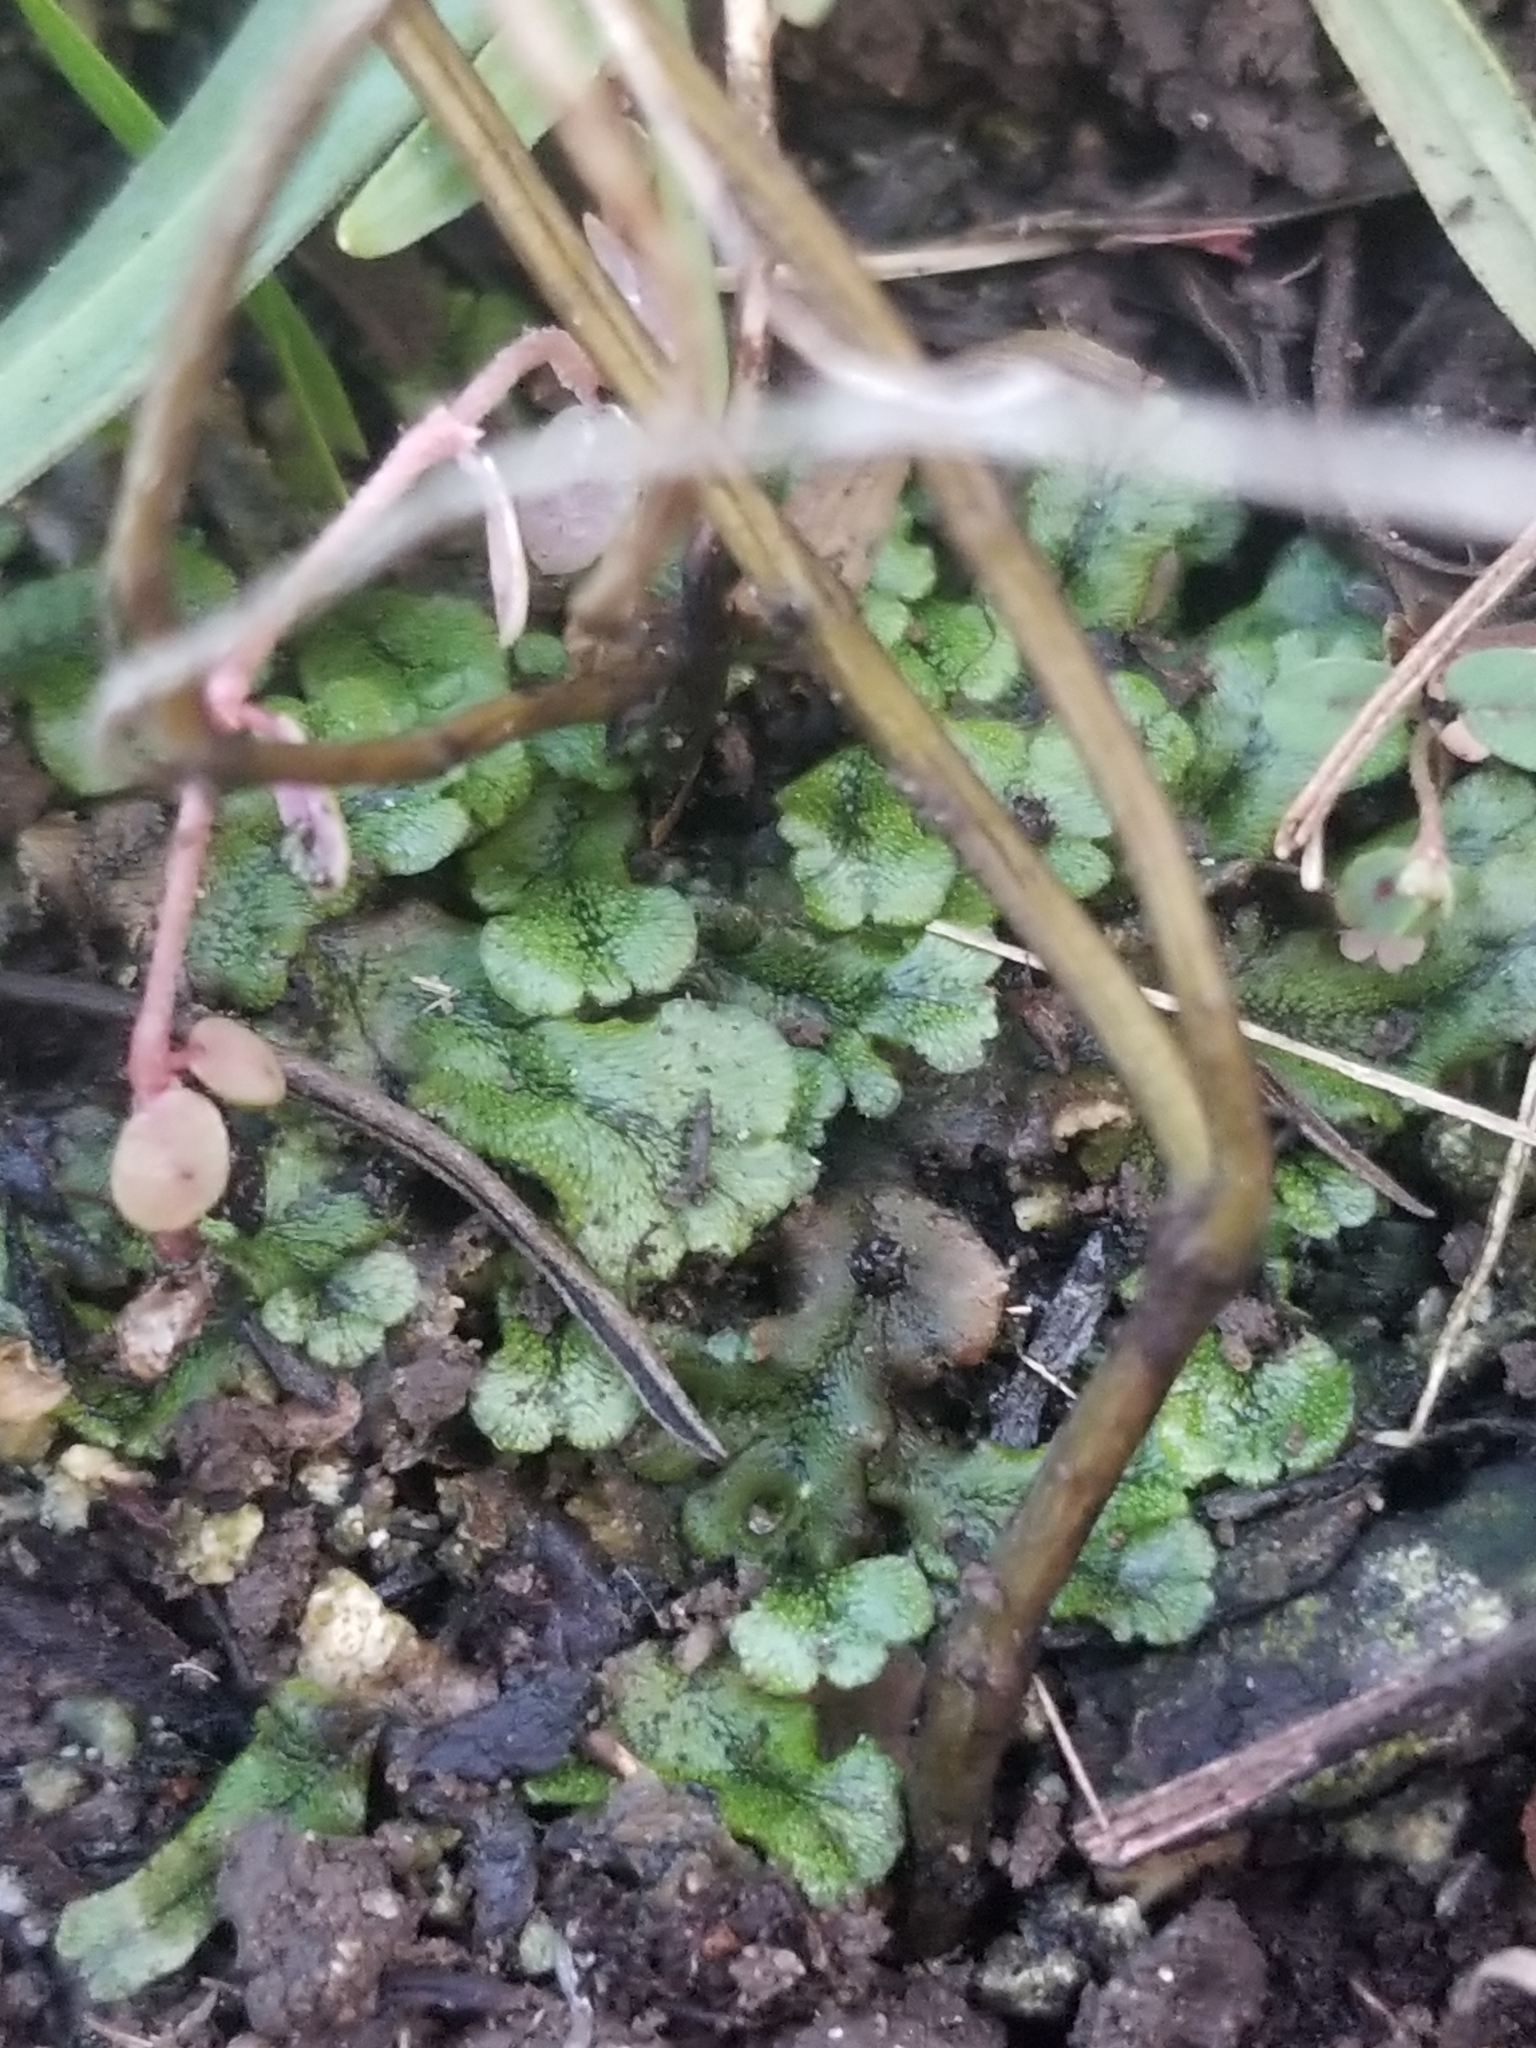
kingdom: Plantae
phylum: Marchantiophyta
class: Marchantiopsida
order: Marchantiales
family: Marchantiaceae
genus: Marchantia
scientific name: Marchantia polymorpha
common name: Common liverwort
